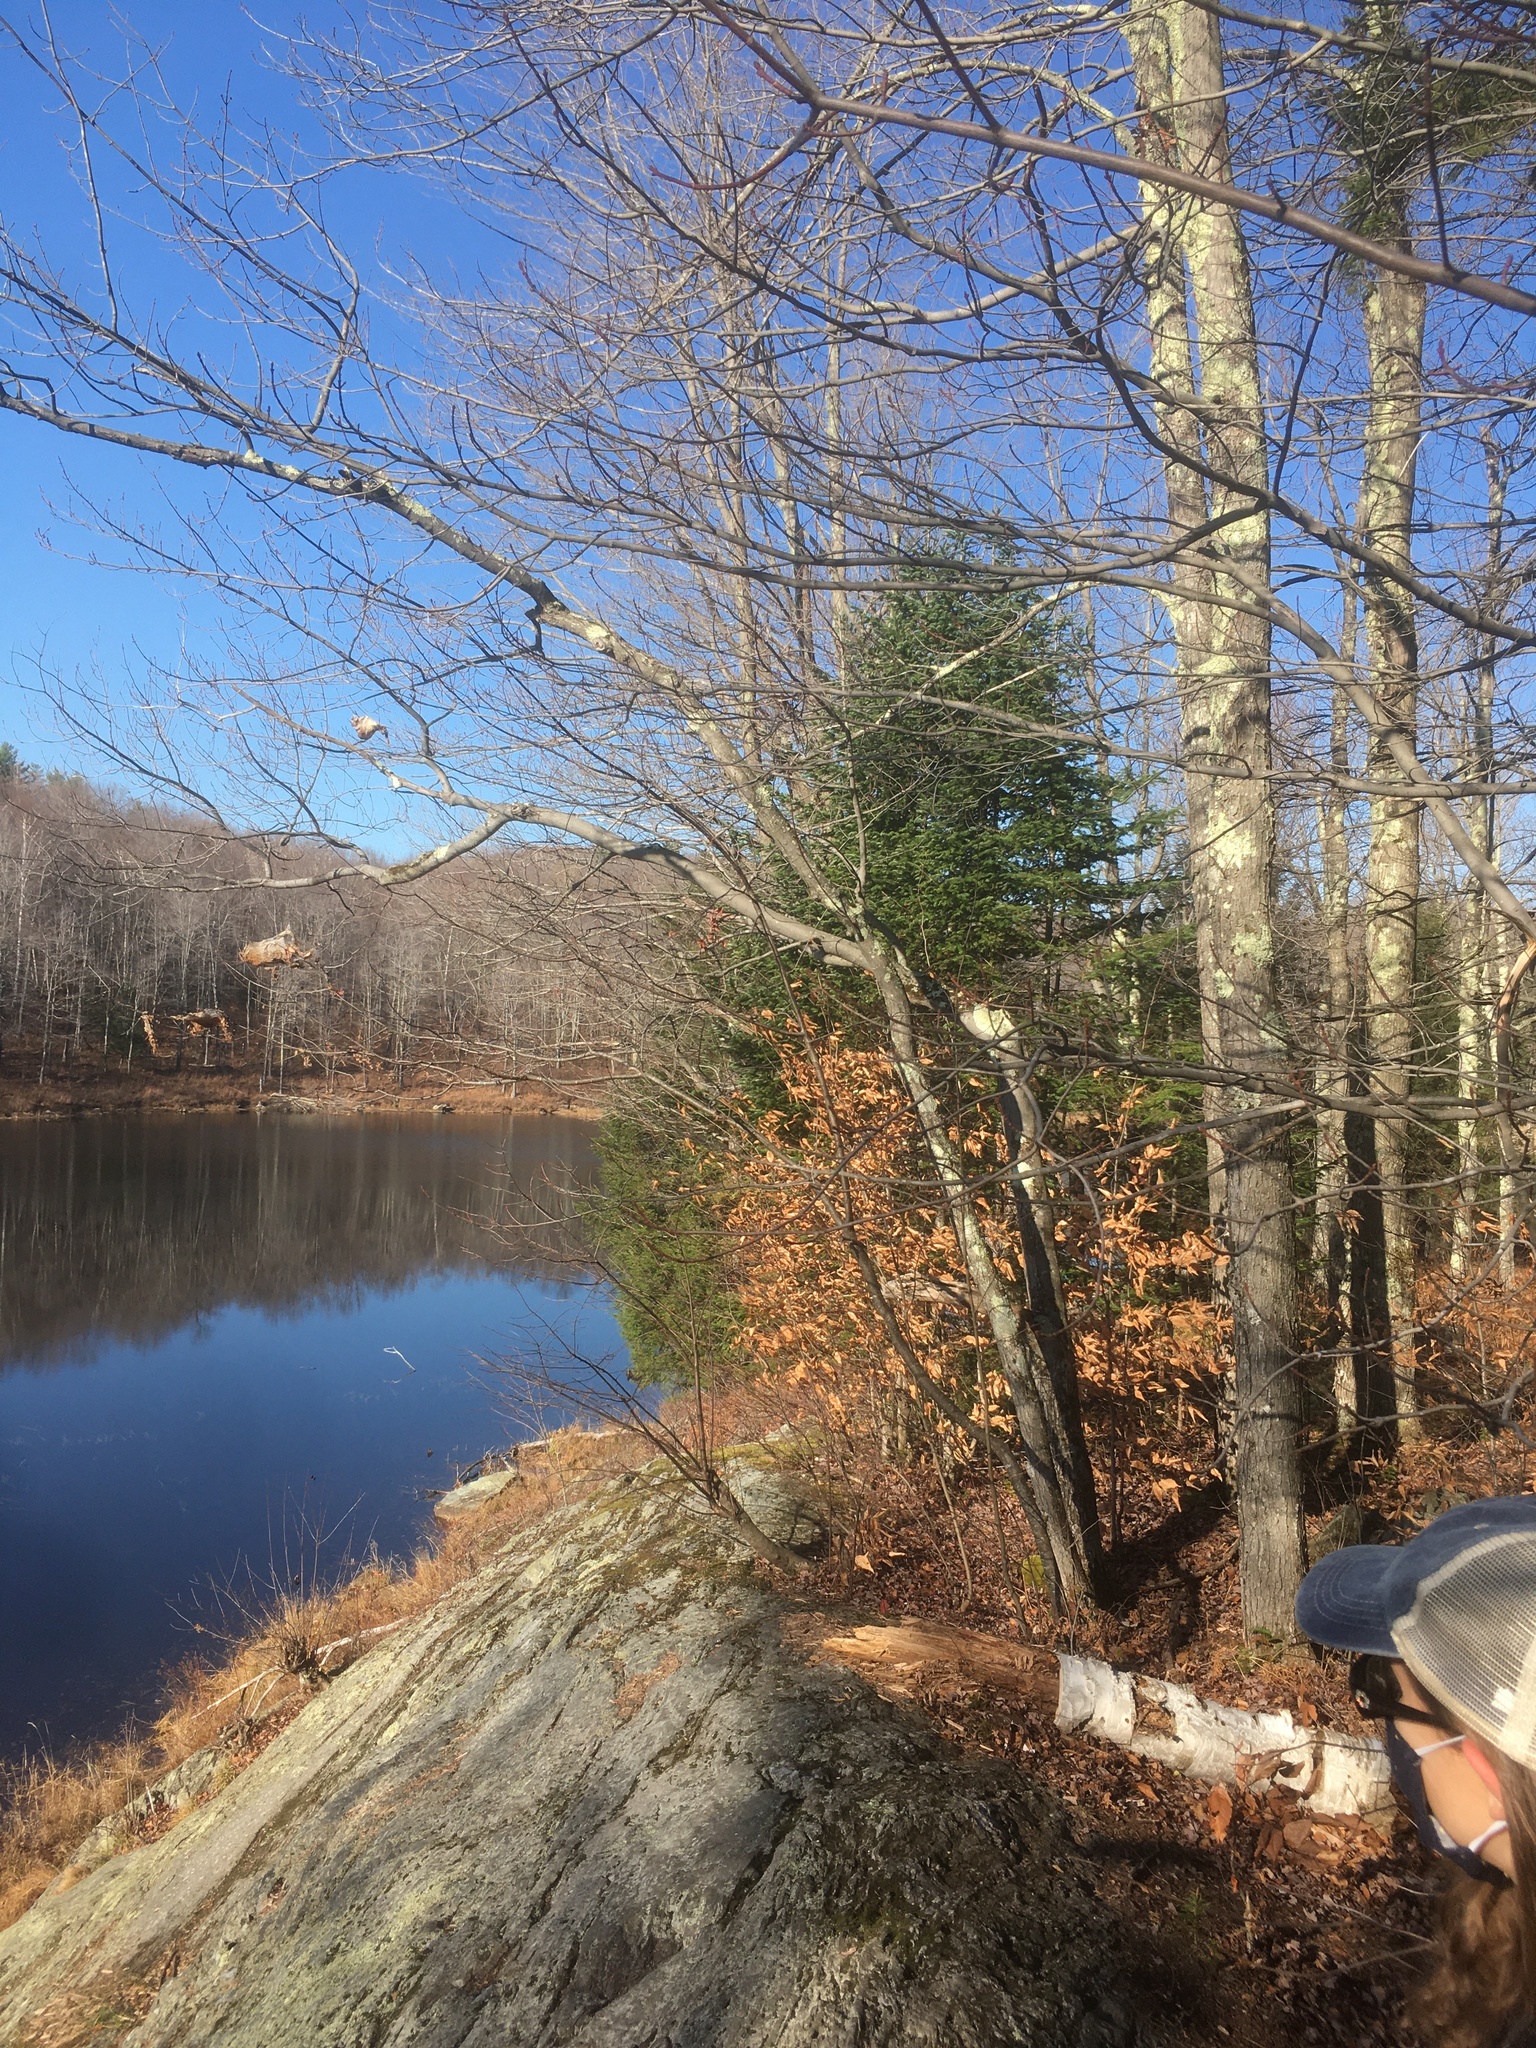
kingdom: Plantae
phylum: Tracheophyta
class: Pinopsida
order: Pinales
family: Pinaceae
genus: Abies
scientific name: Abies balsamea
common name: Balsam fir
